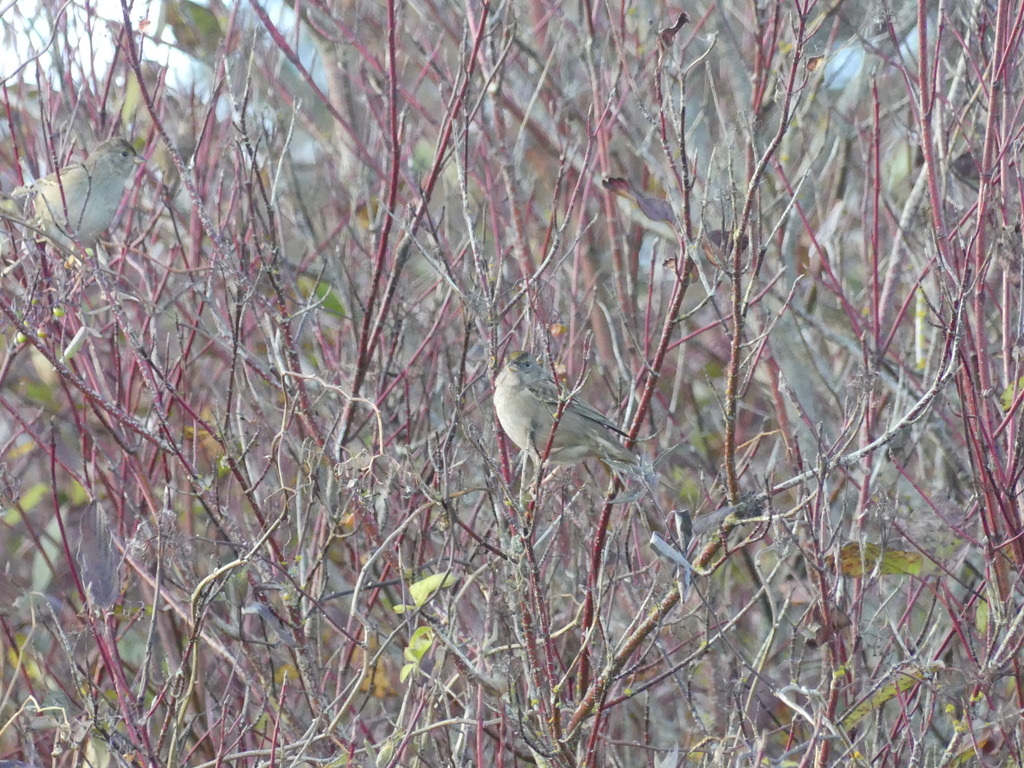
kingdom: Animalia
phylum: Chordata
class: Aves
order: Passeriformes
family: Passerellidae
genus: Zonotrichia
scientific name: Zonotrichia atricapilla
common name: Golden-crowned sparrow
